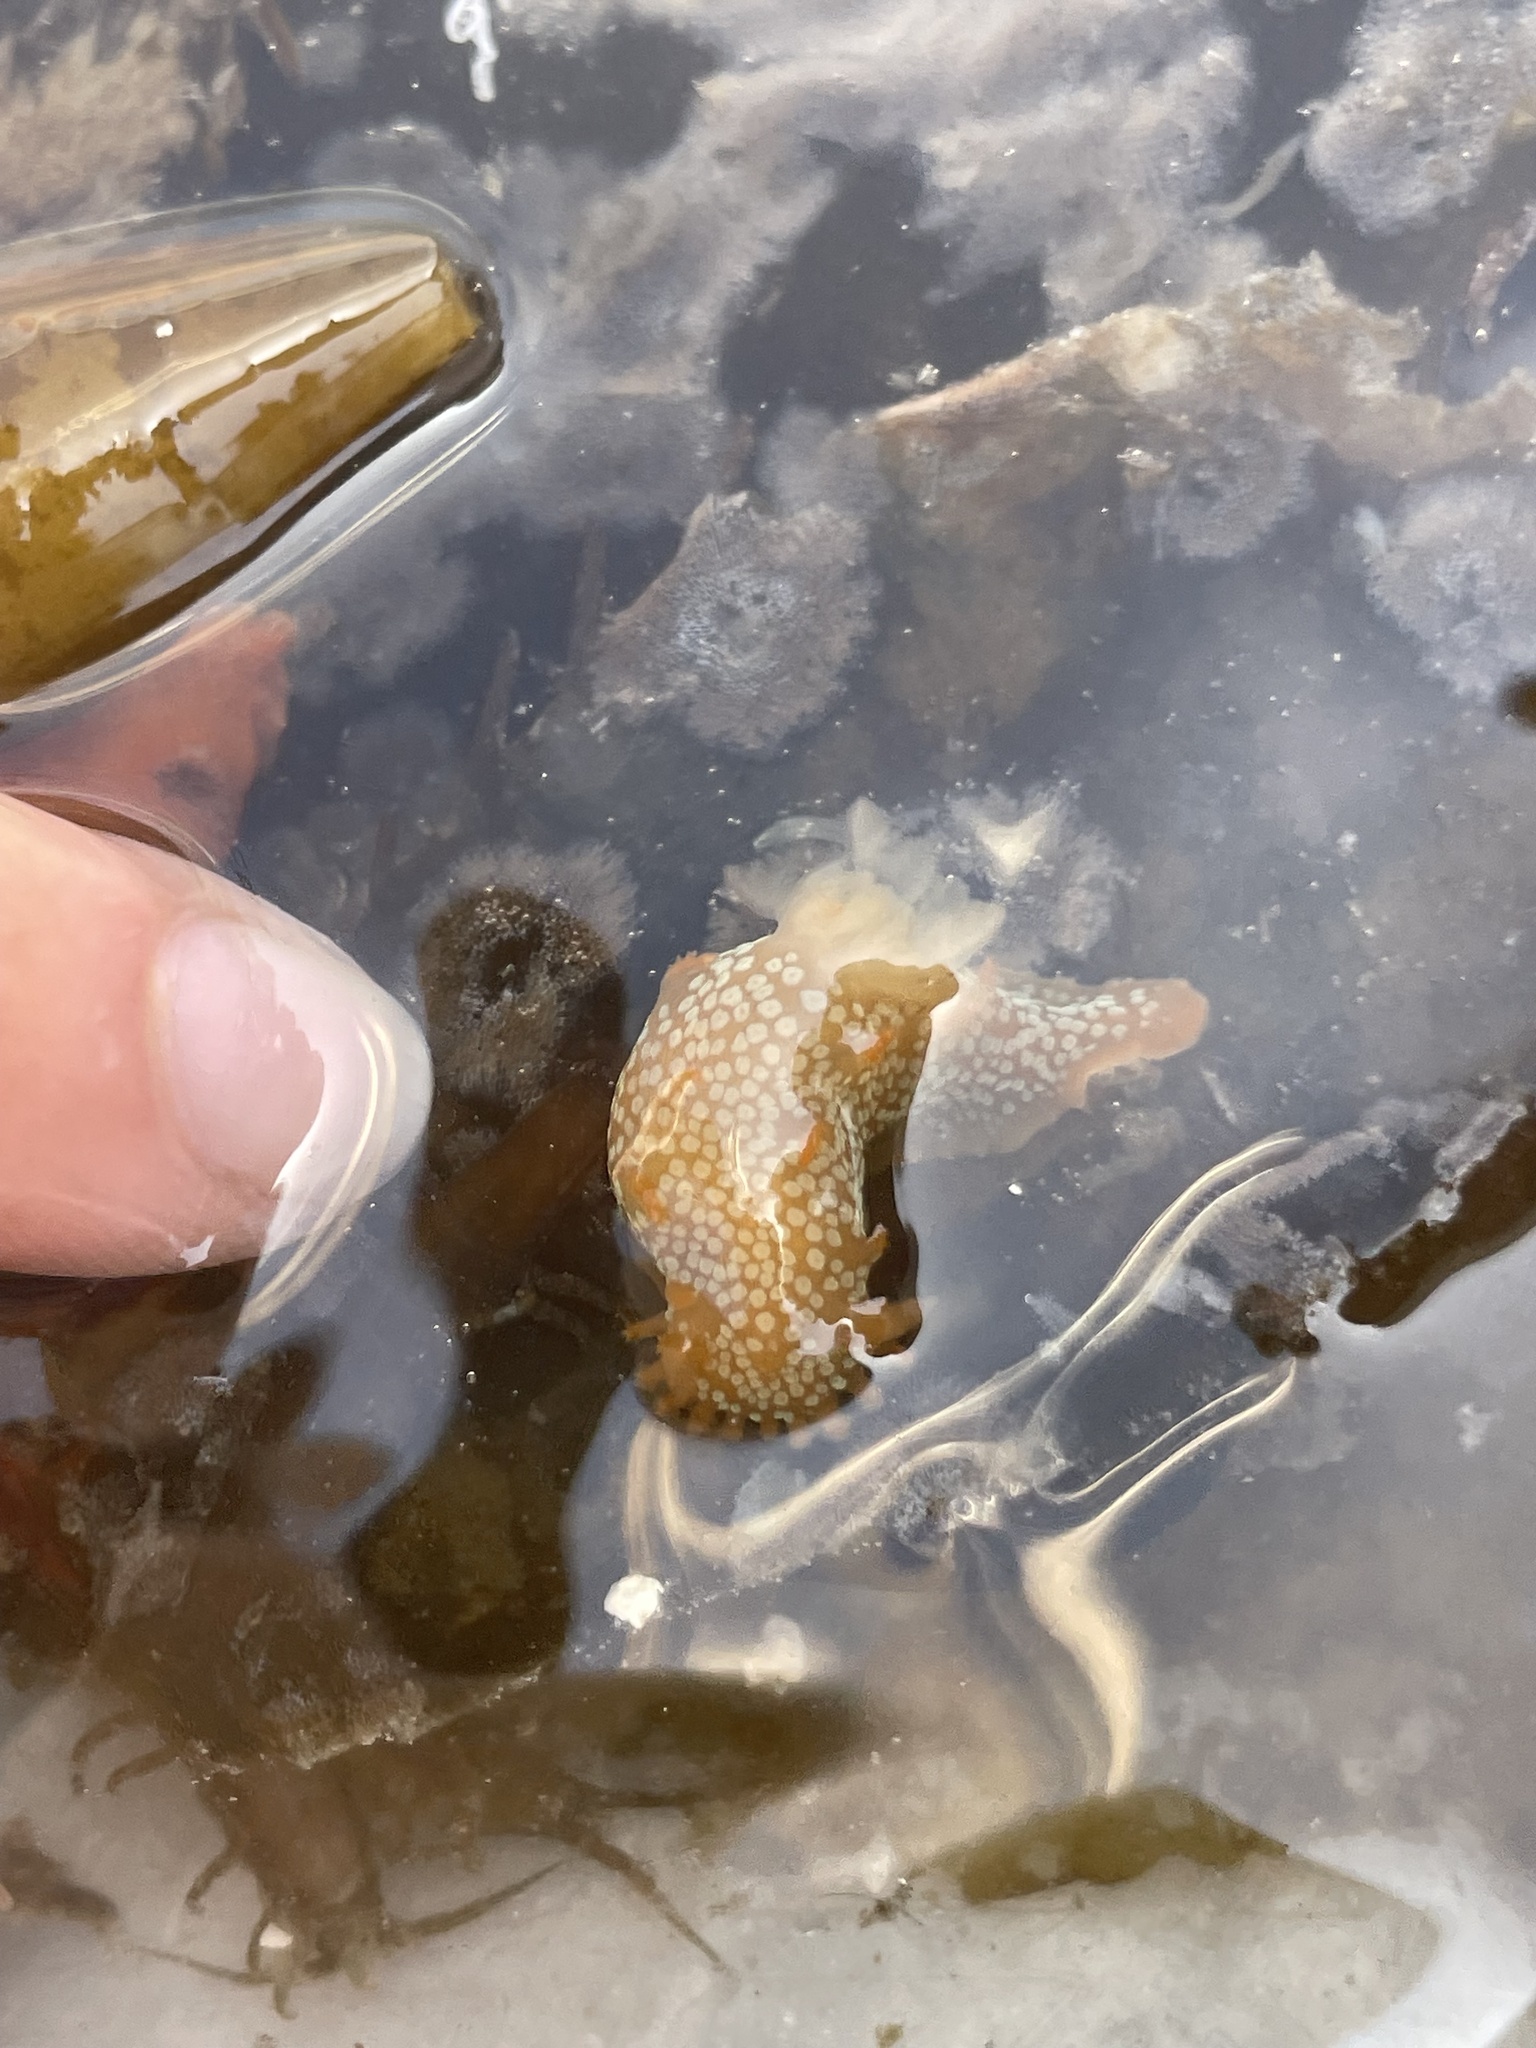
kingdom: Animalia
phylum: Mollusca
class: Gastropoda
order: Nudibranchia
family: Polyceridae
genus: Triopha
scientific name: Triopha maculata
